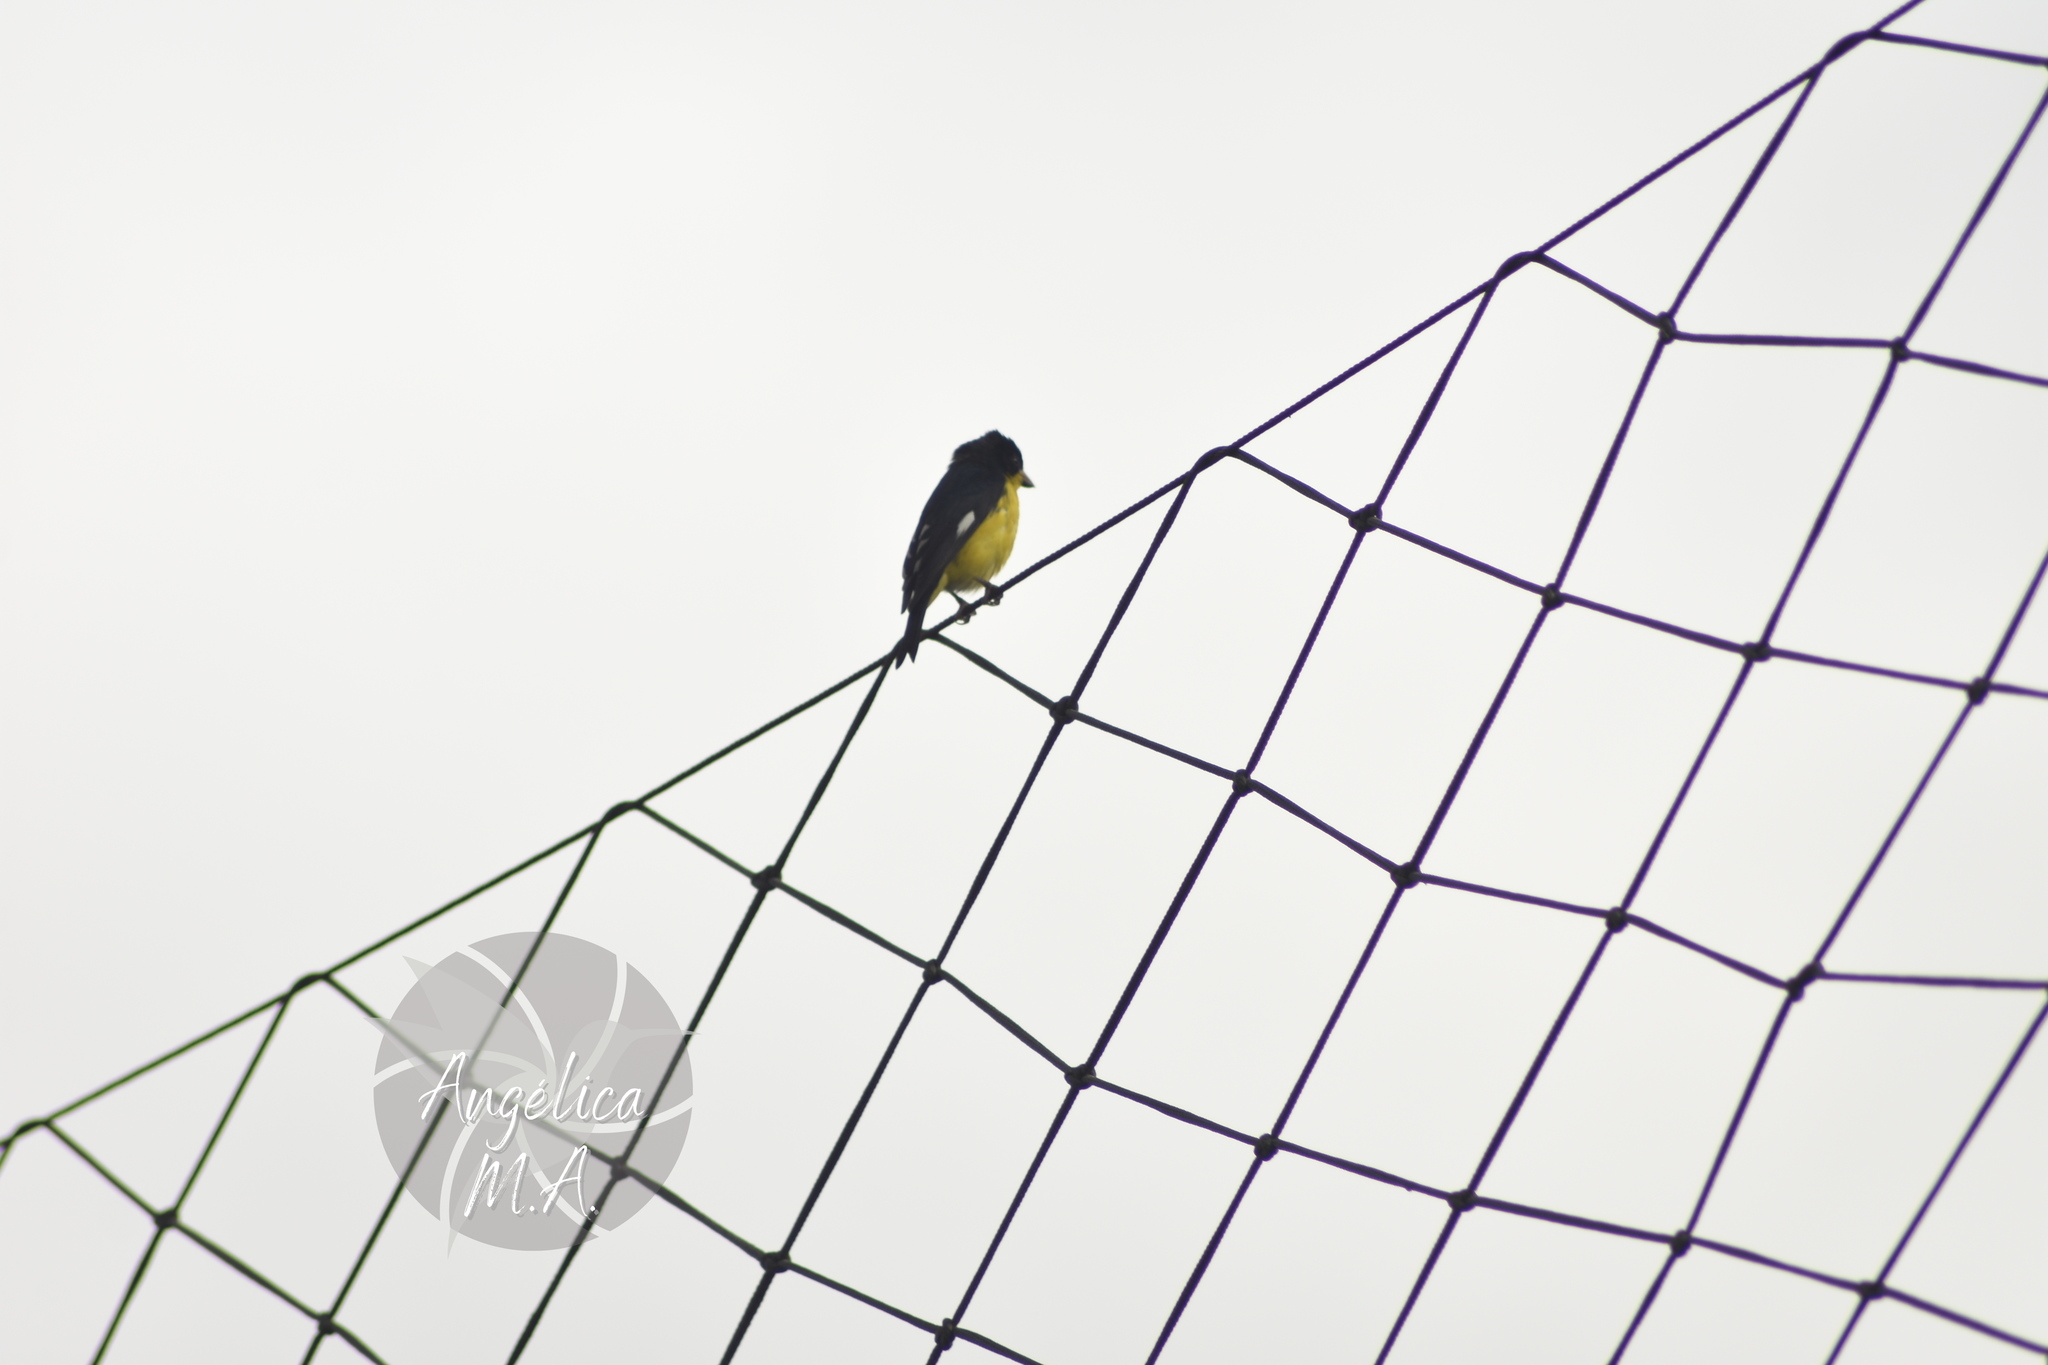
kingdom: Animalia
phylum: Chordata
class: Aves
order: Passeriformes
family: Fringillidae
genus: Spinus
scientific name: Spinus psaltria
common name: Lesser goldfinch
